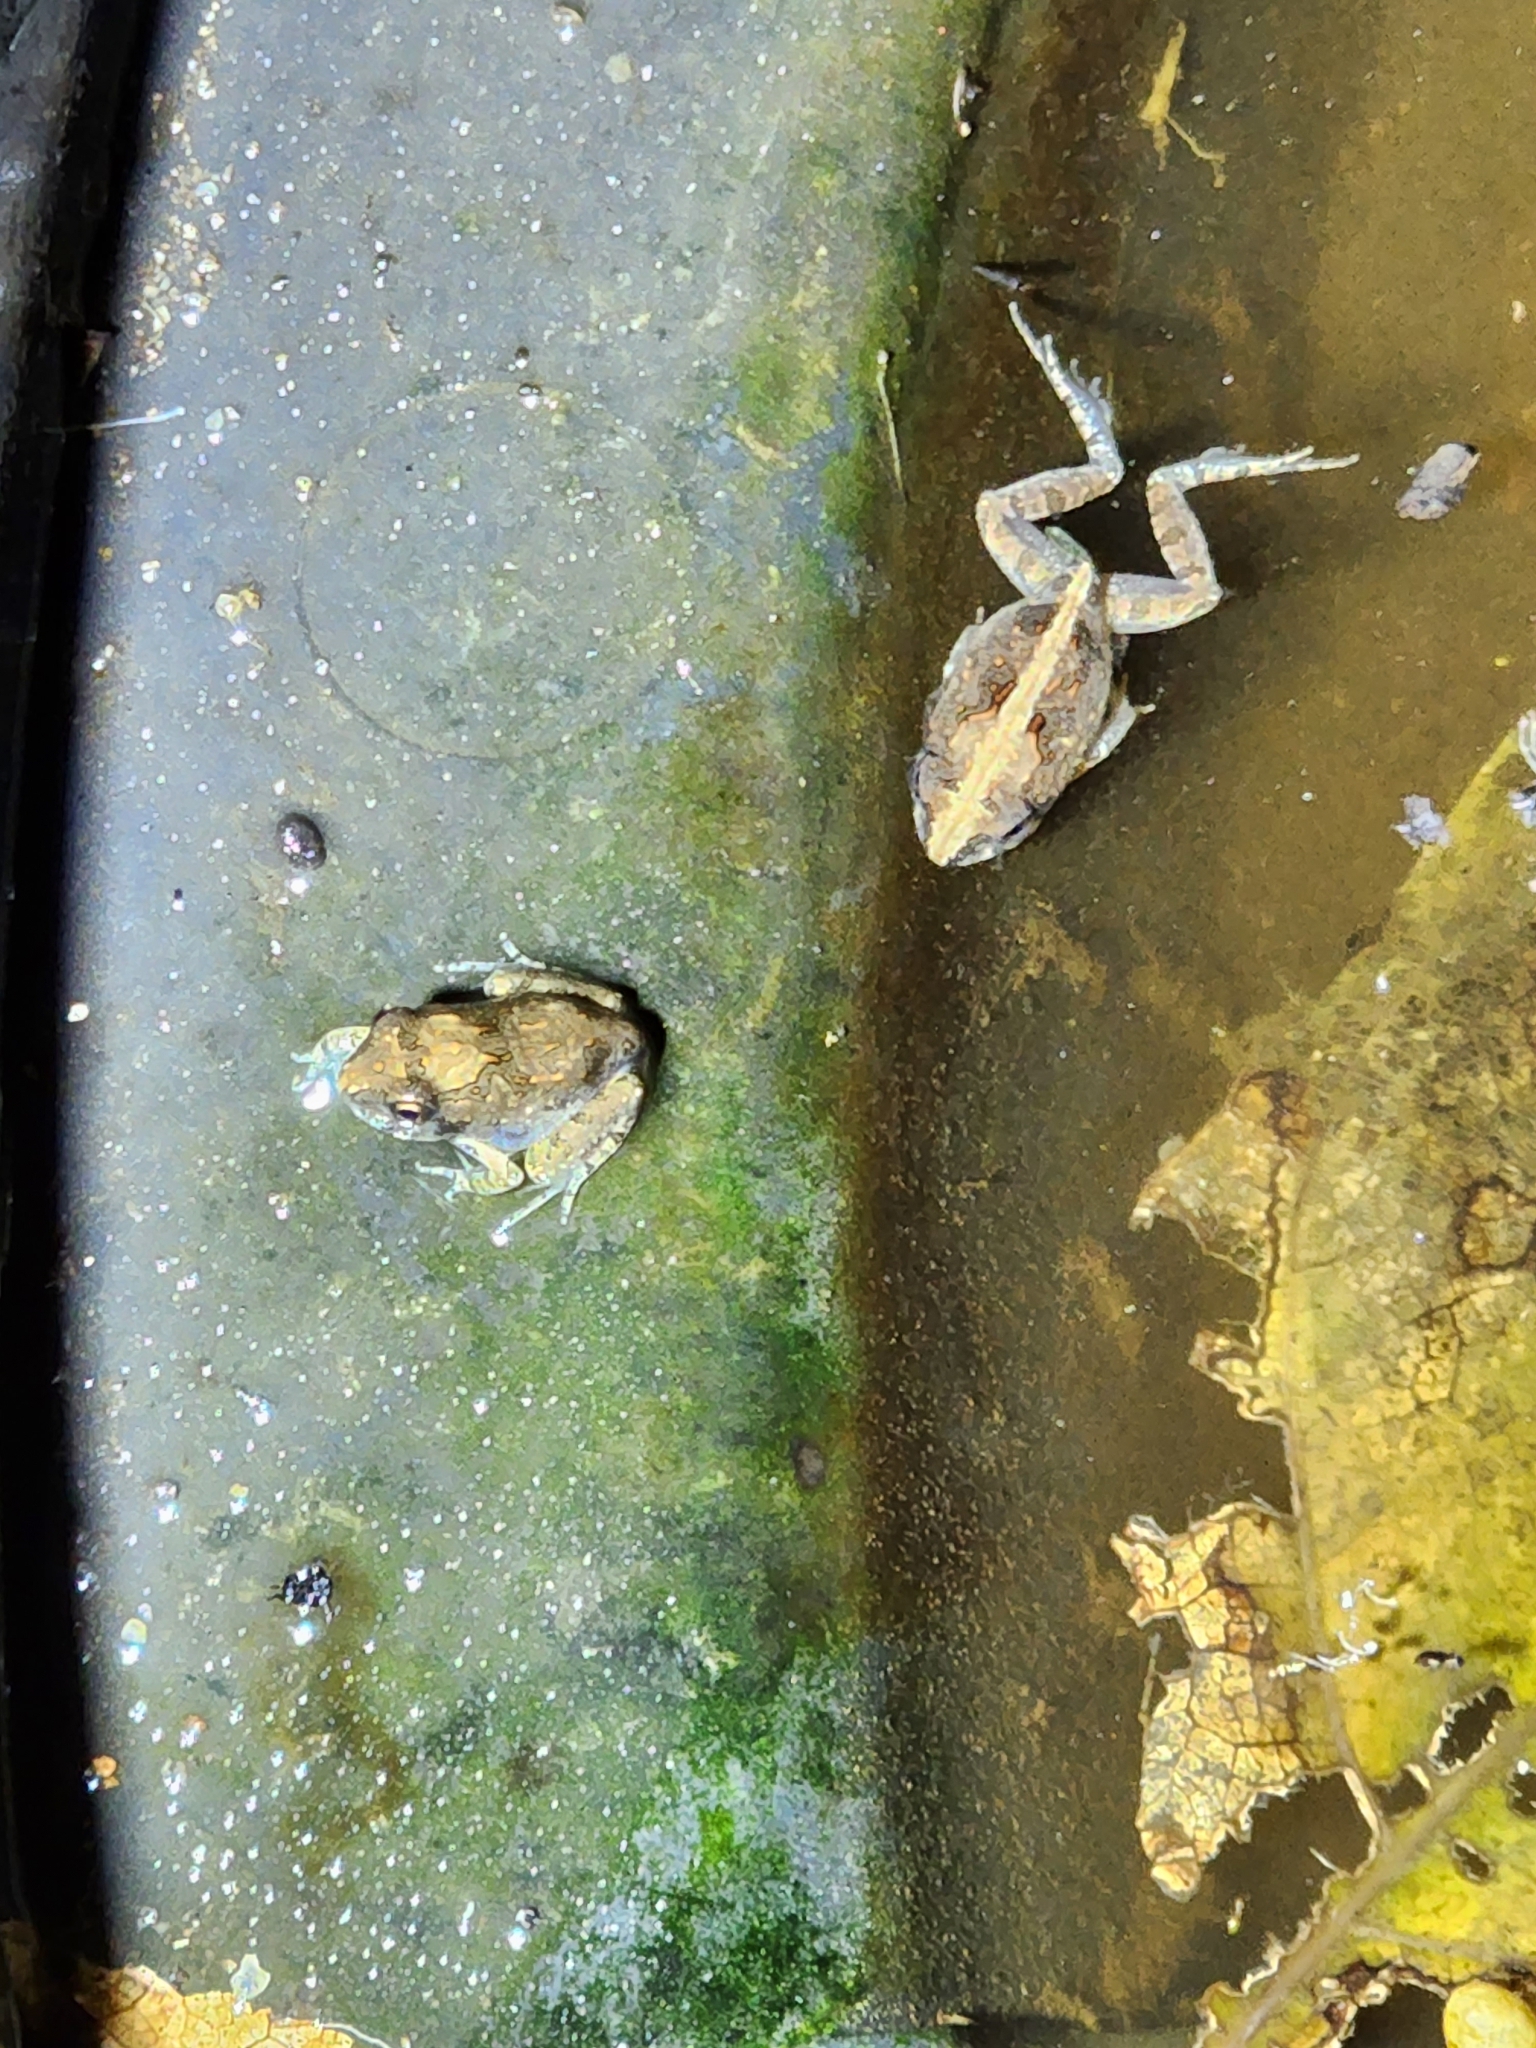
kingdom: Animalia
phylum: Chordata
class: Amphibia
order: Anura
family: Limnodynastidae
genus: Platyplectrum
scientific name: Platyplectrum ornatum
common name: Ornate burrowing frog
